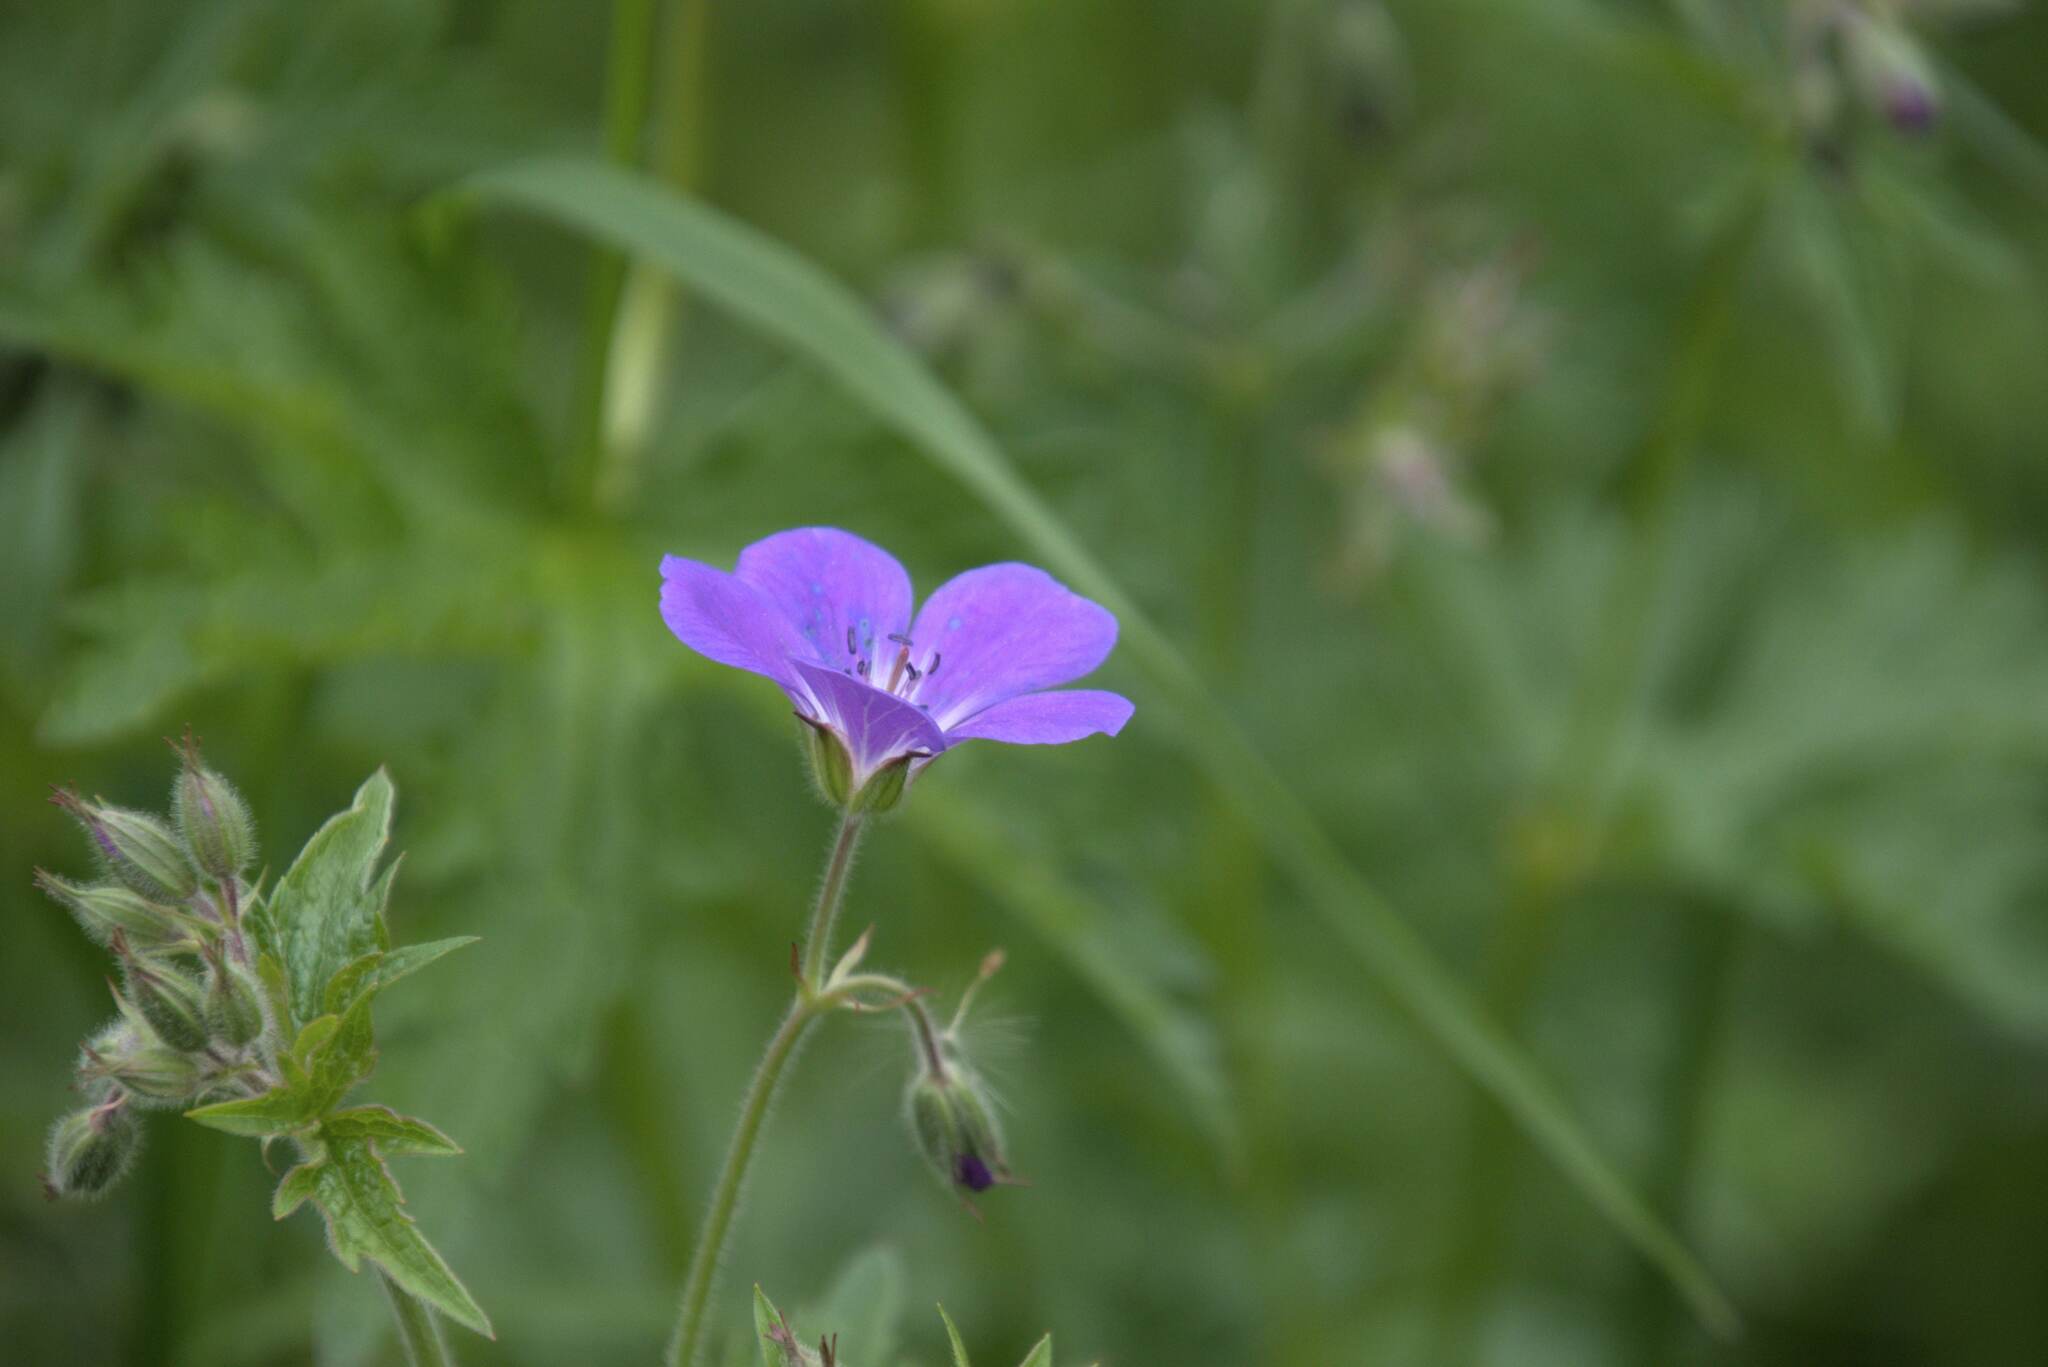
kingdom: Plantae
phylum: Tracheophyta
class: Magnoliopsida
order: Geraniales
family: Geraniaceae
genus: Geranium
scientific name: Geranium sylvaticum
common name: Wood crane's-bill
